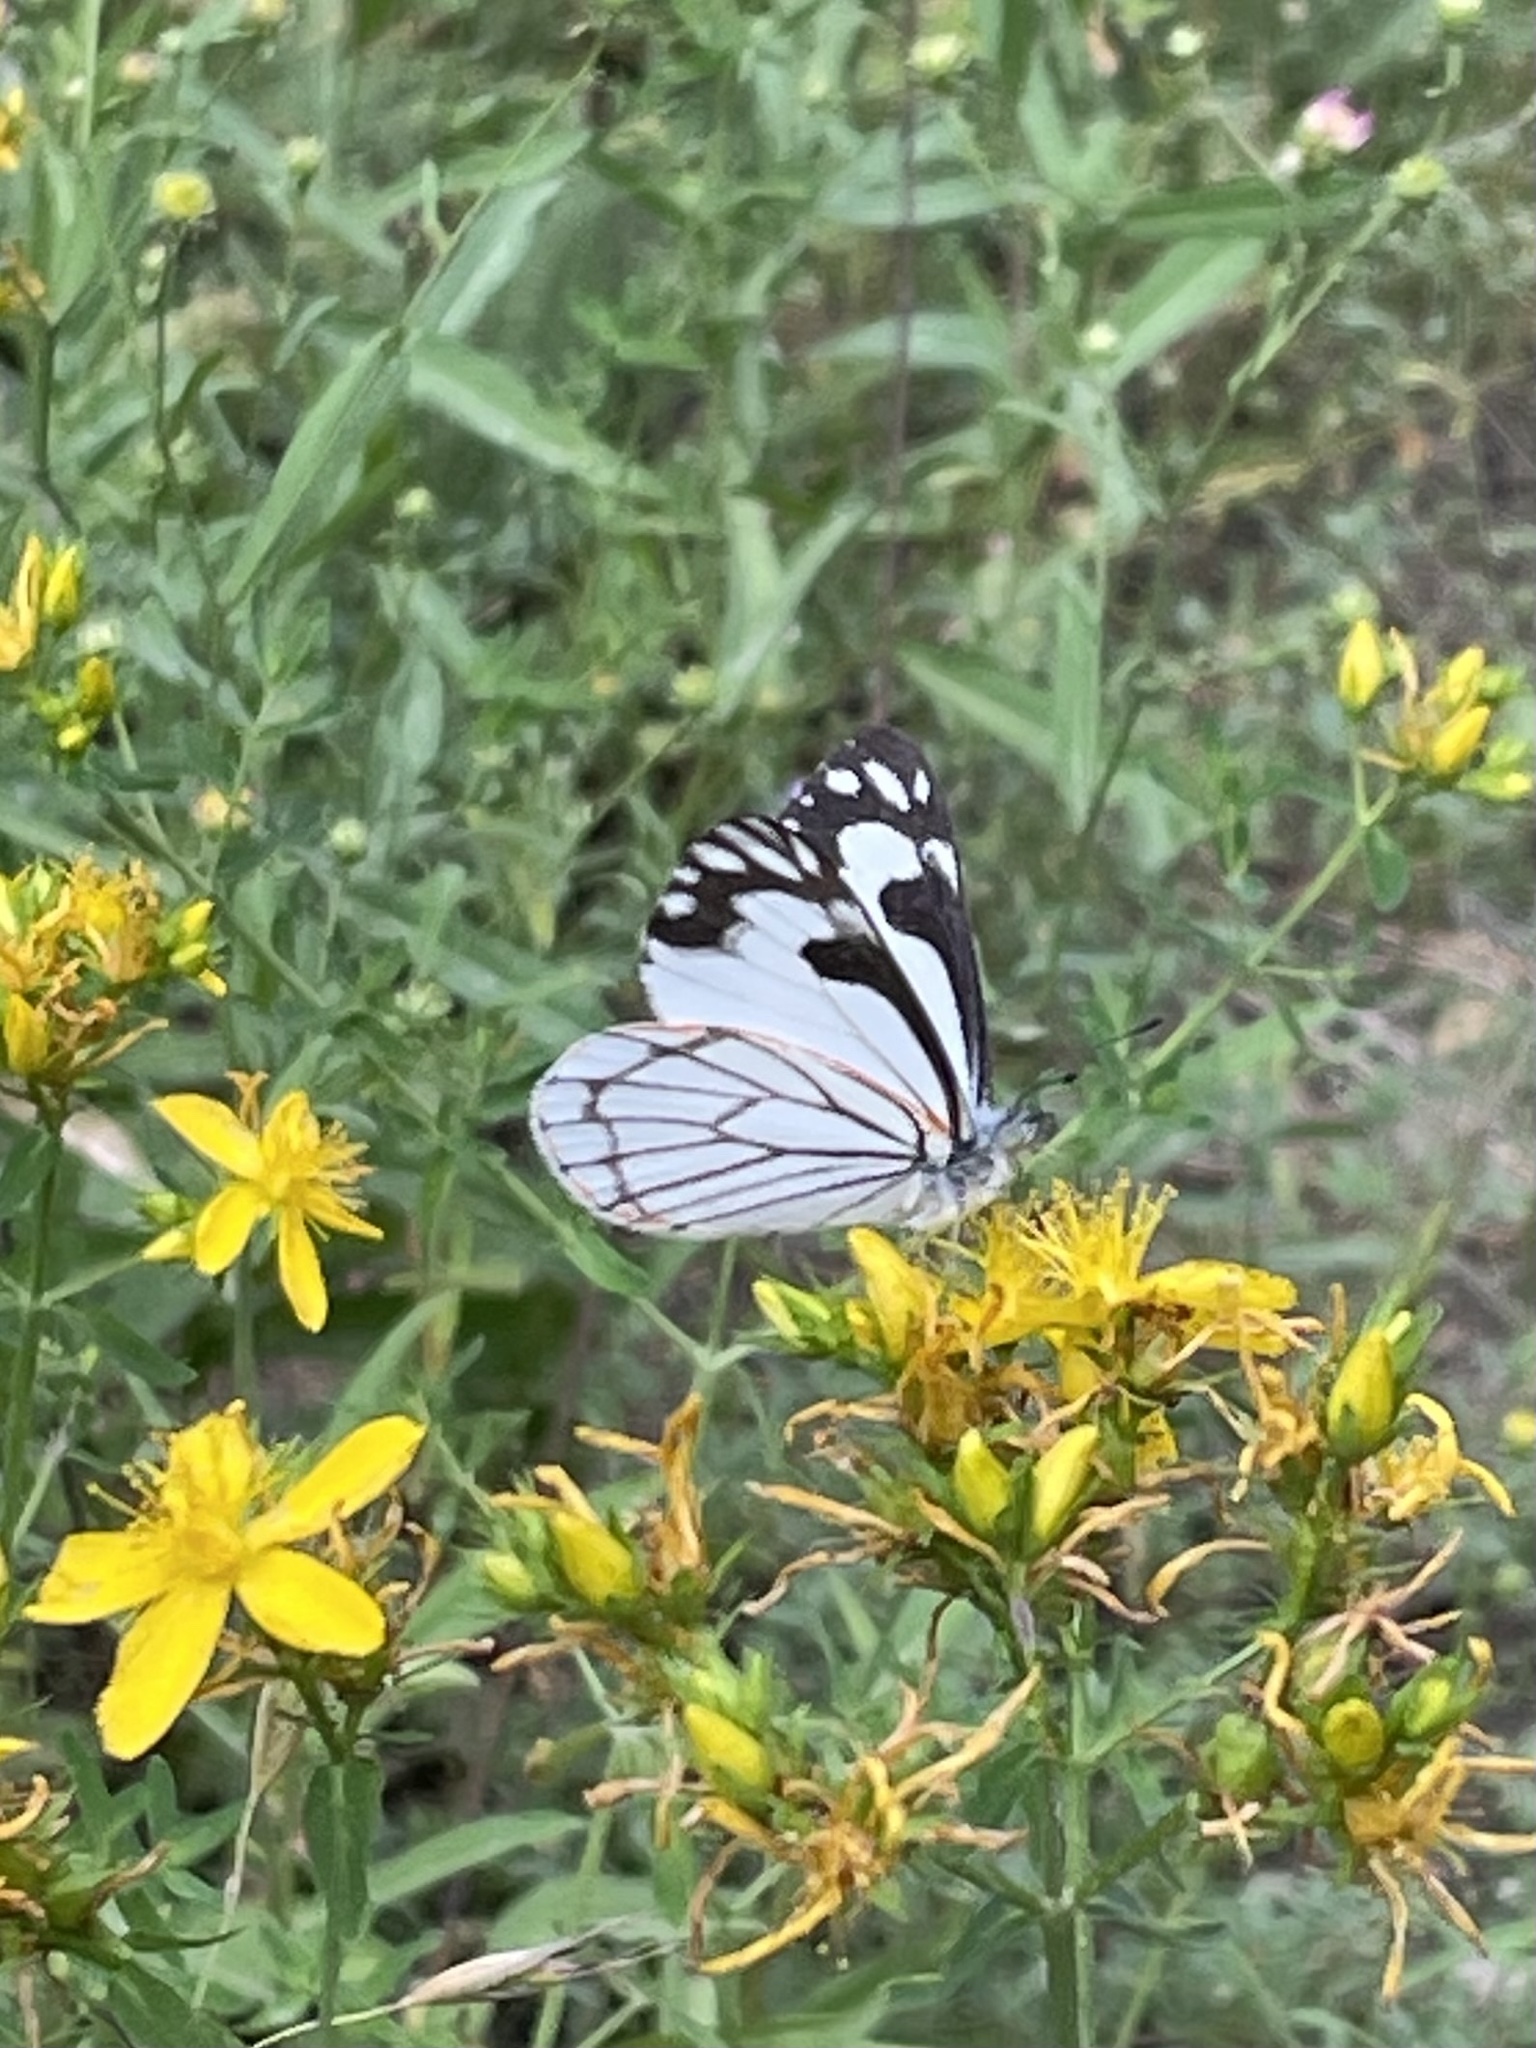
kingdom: Animalia
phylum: Arthropoda
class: Insecta
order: Lepidoptera
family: Pieridae
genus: Neophasia
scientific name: Neophasia menapia
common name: Pine white
